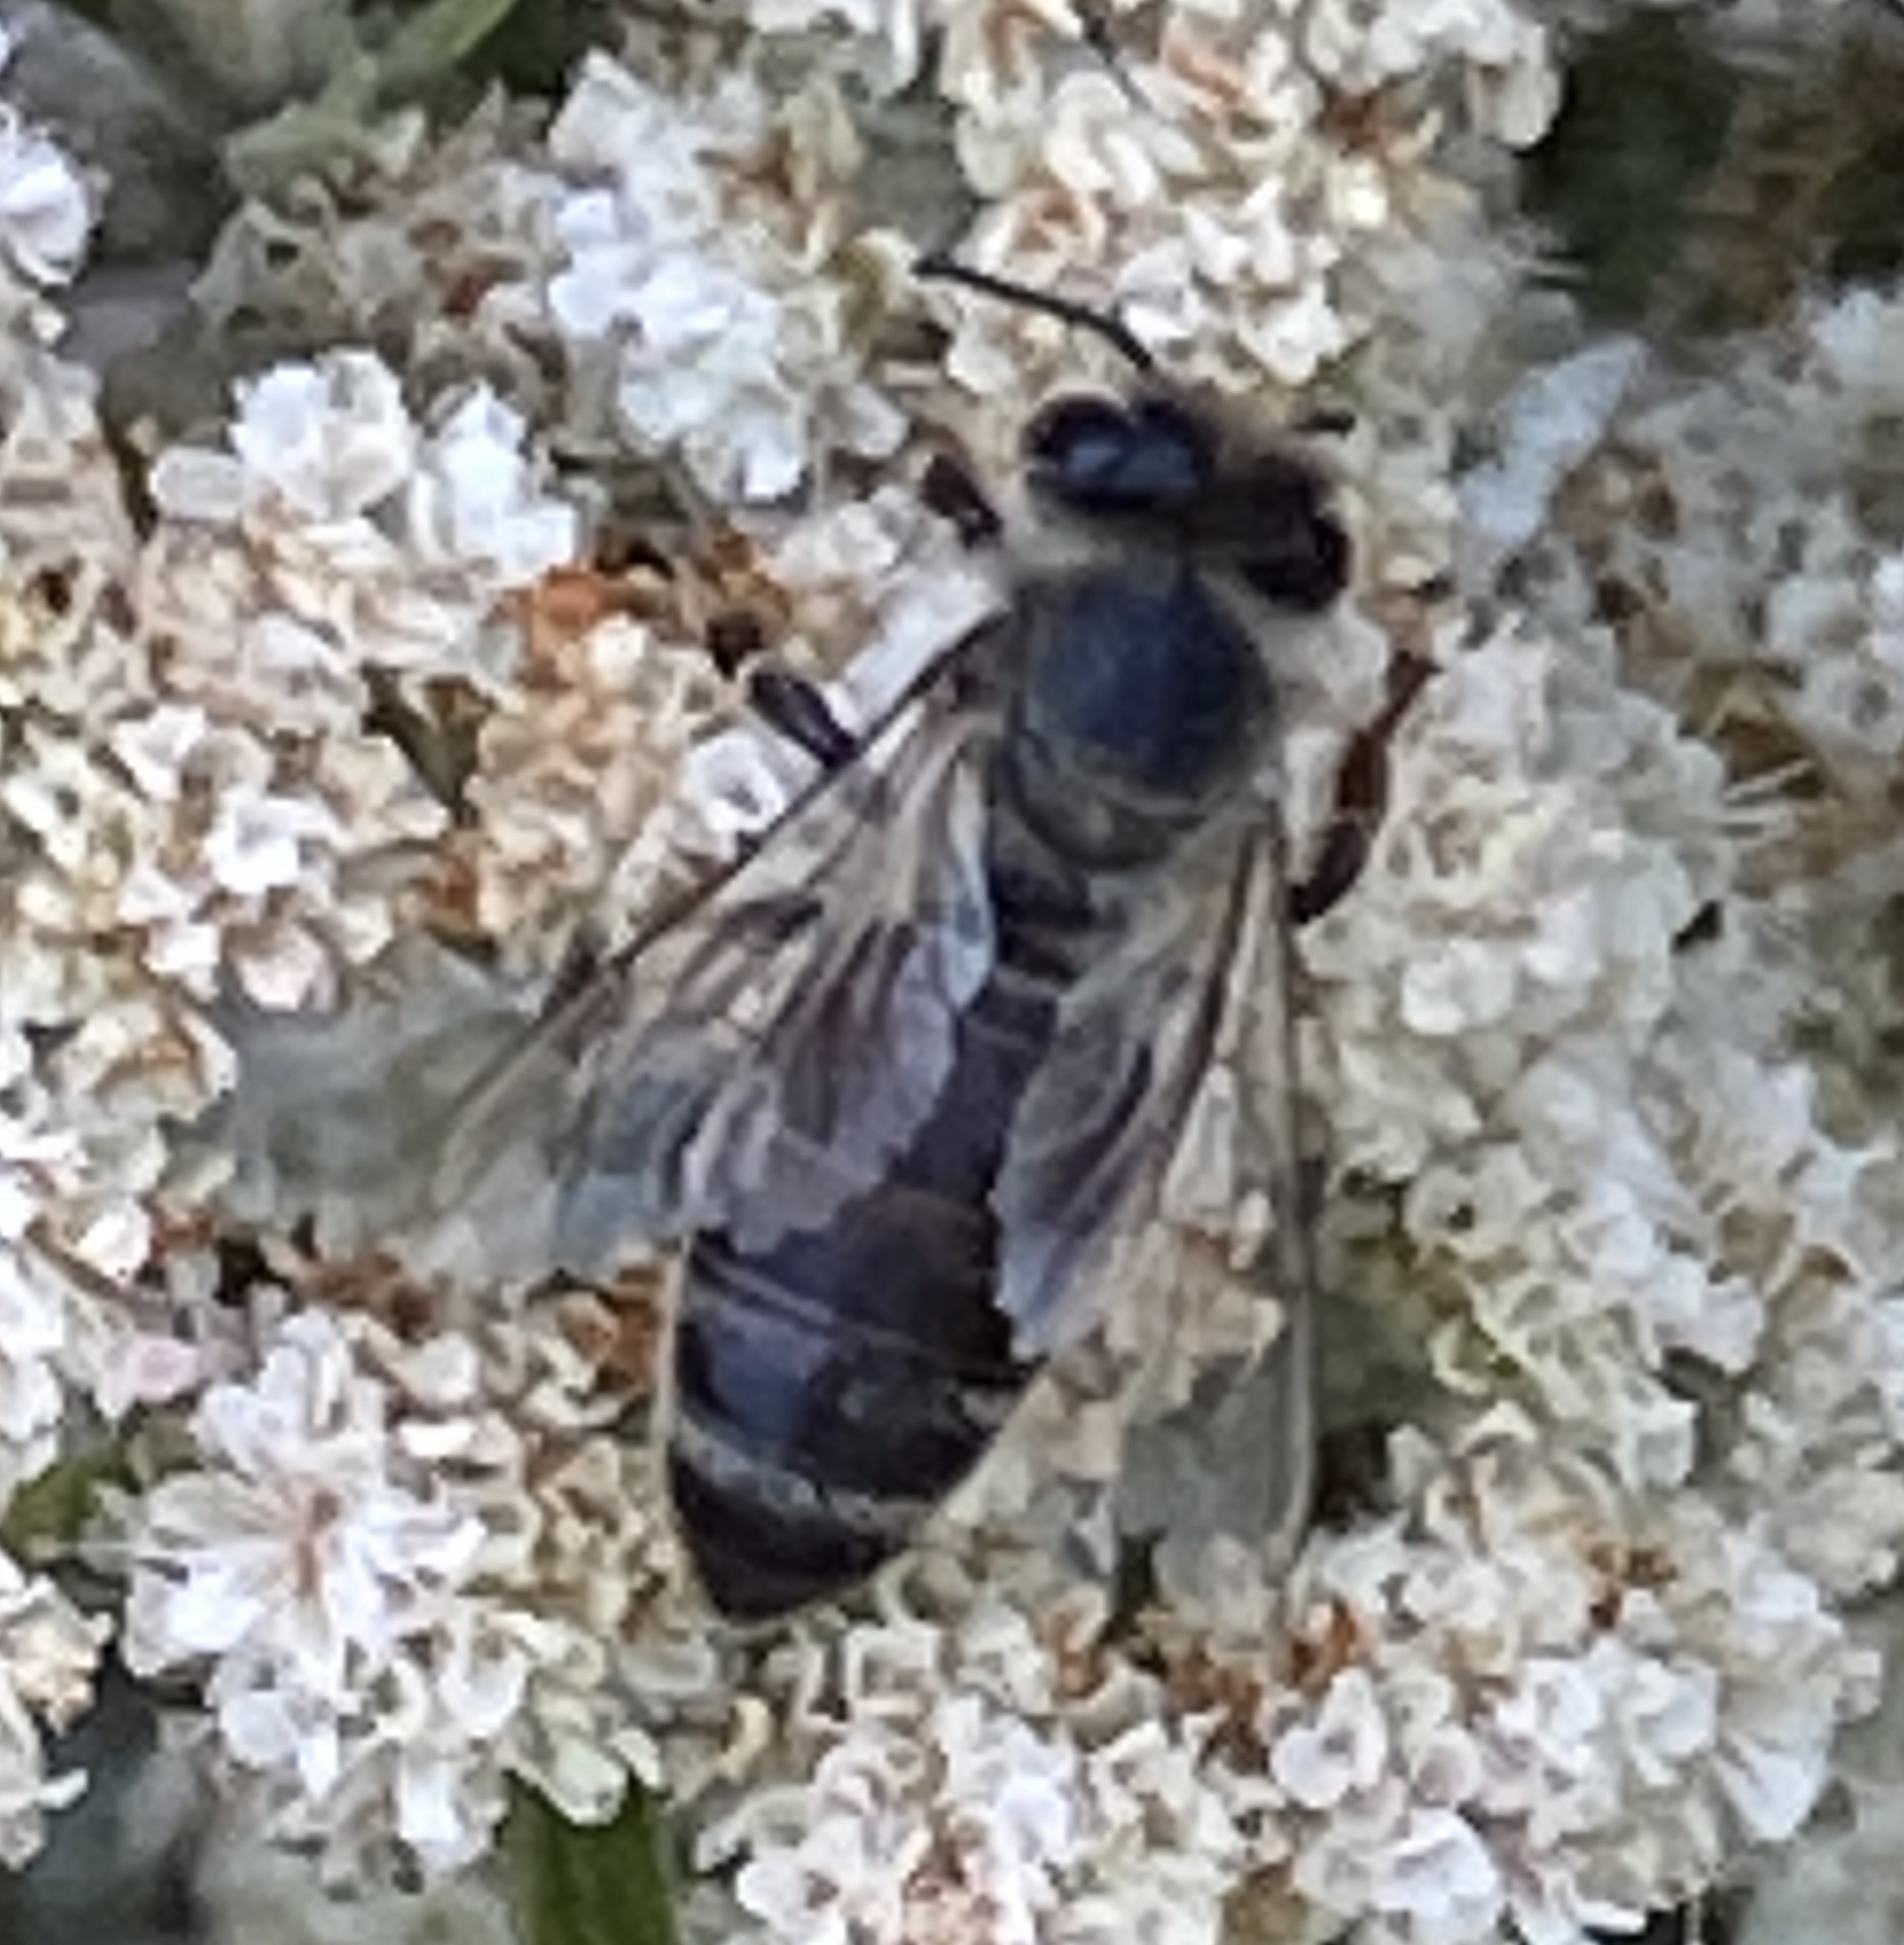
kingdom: Animalia
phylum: Arthropoda
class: Insecta
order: Hymenoptera
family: Apidae
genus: Apis
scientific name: Apis mellifera
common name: Honey bee
